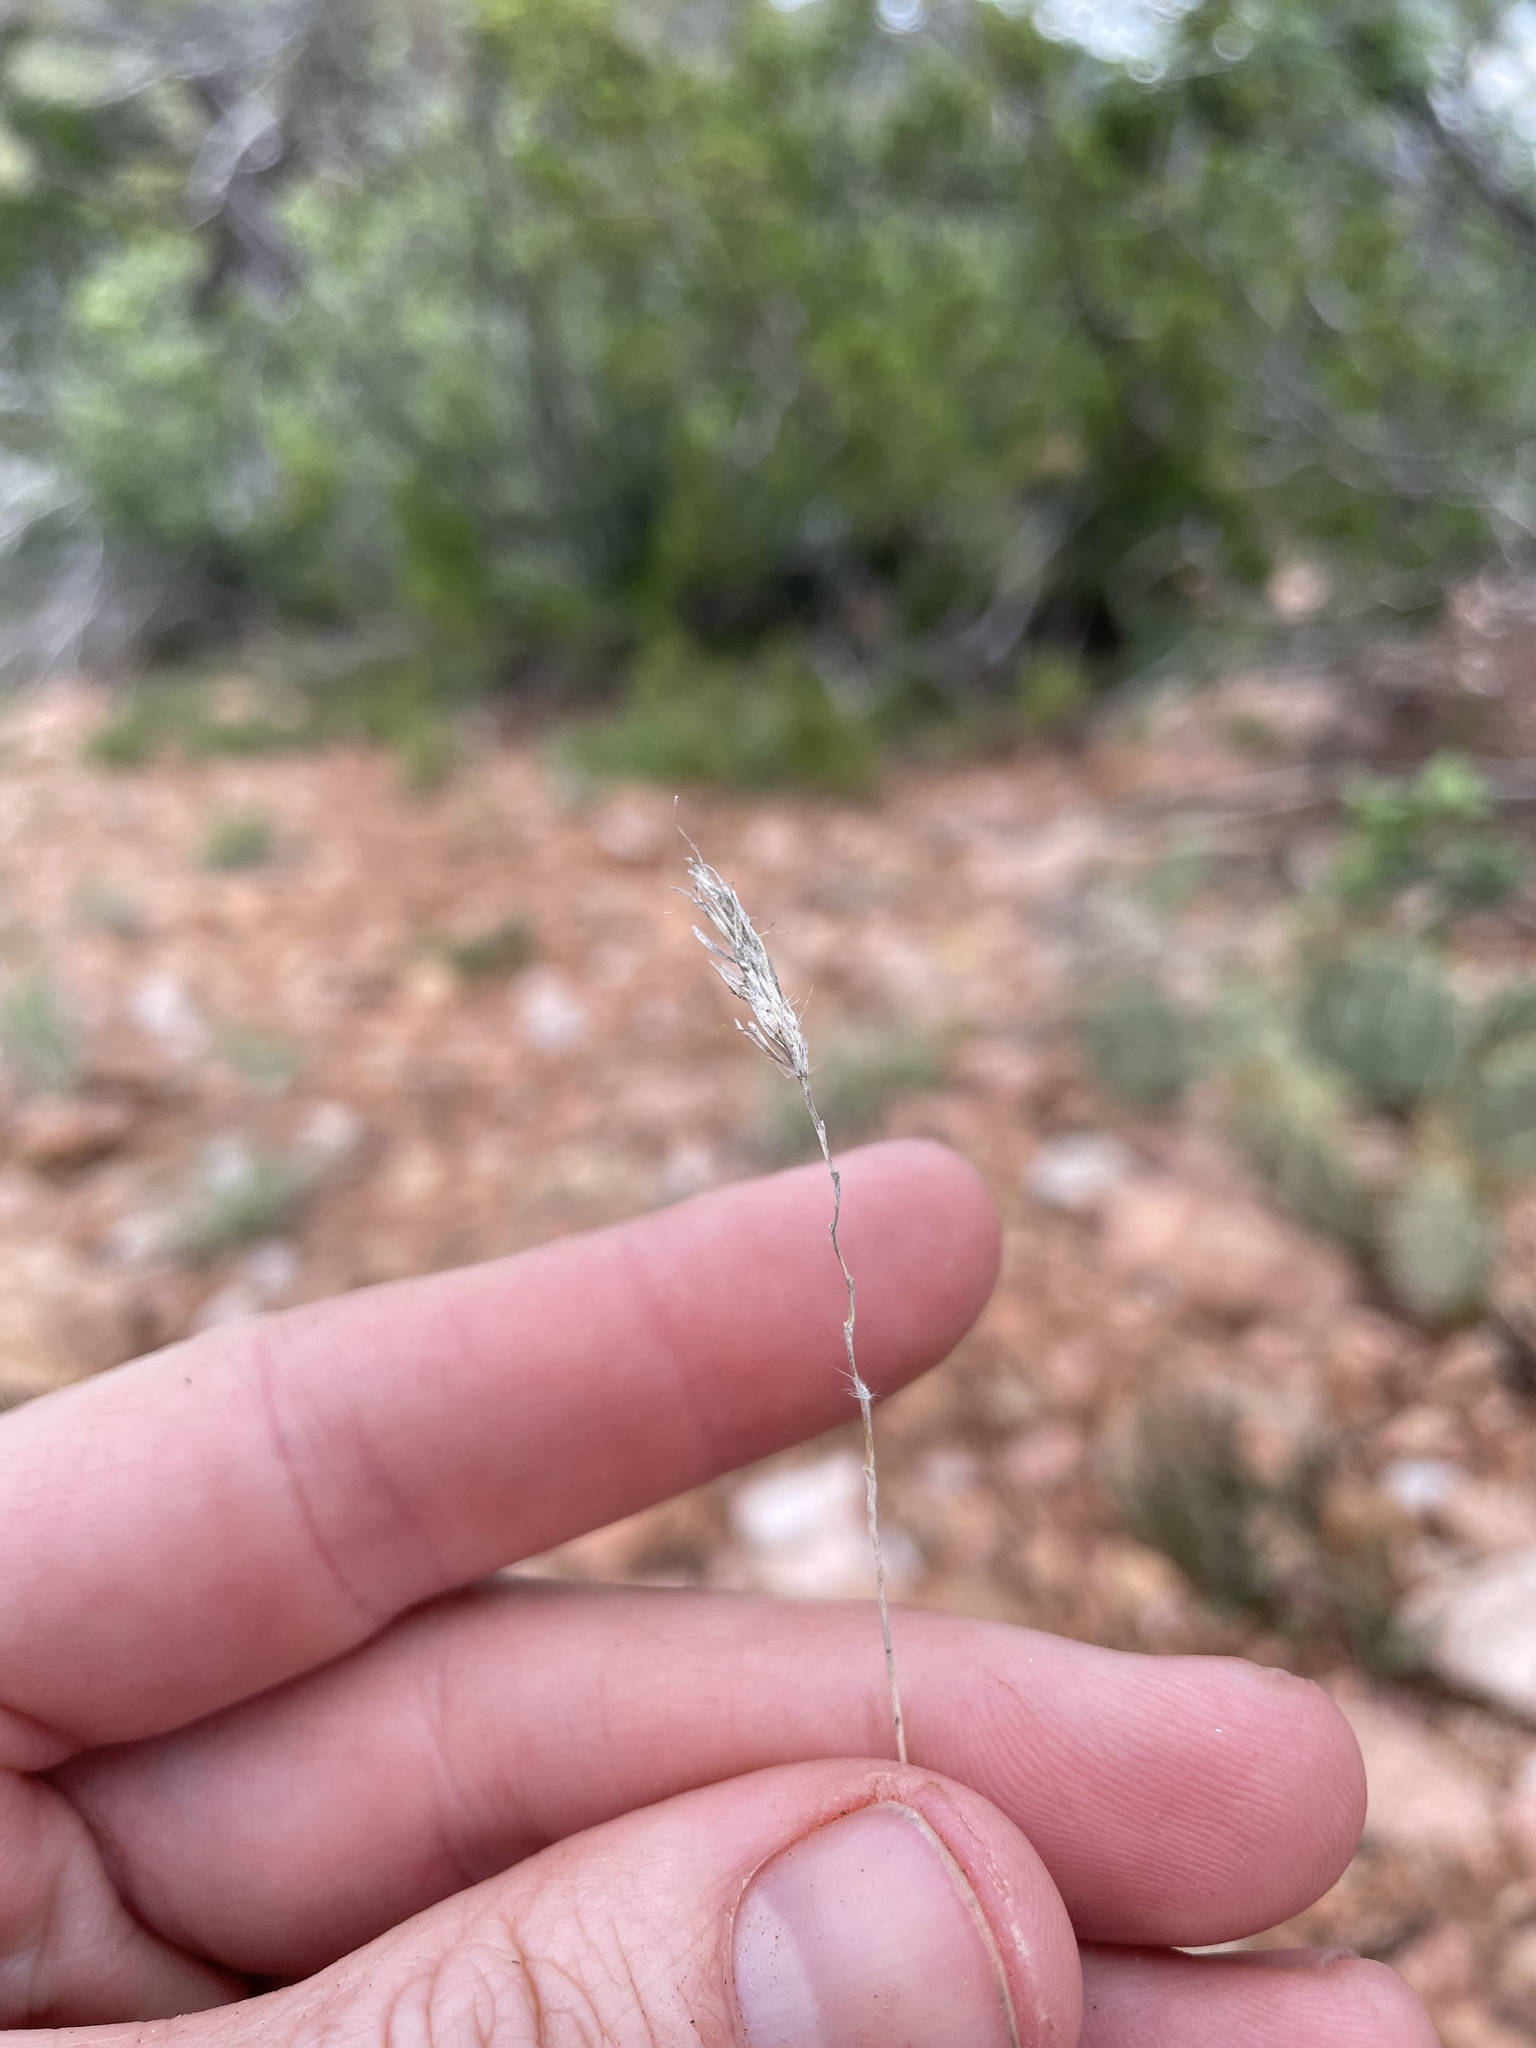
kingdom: Plantae
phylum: Tracheophyta
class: Liliopsida
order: Poales
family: Poaceae
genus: Hilaria
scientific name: Hilaria jamesii
